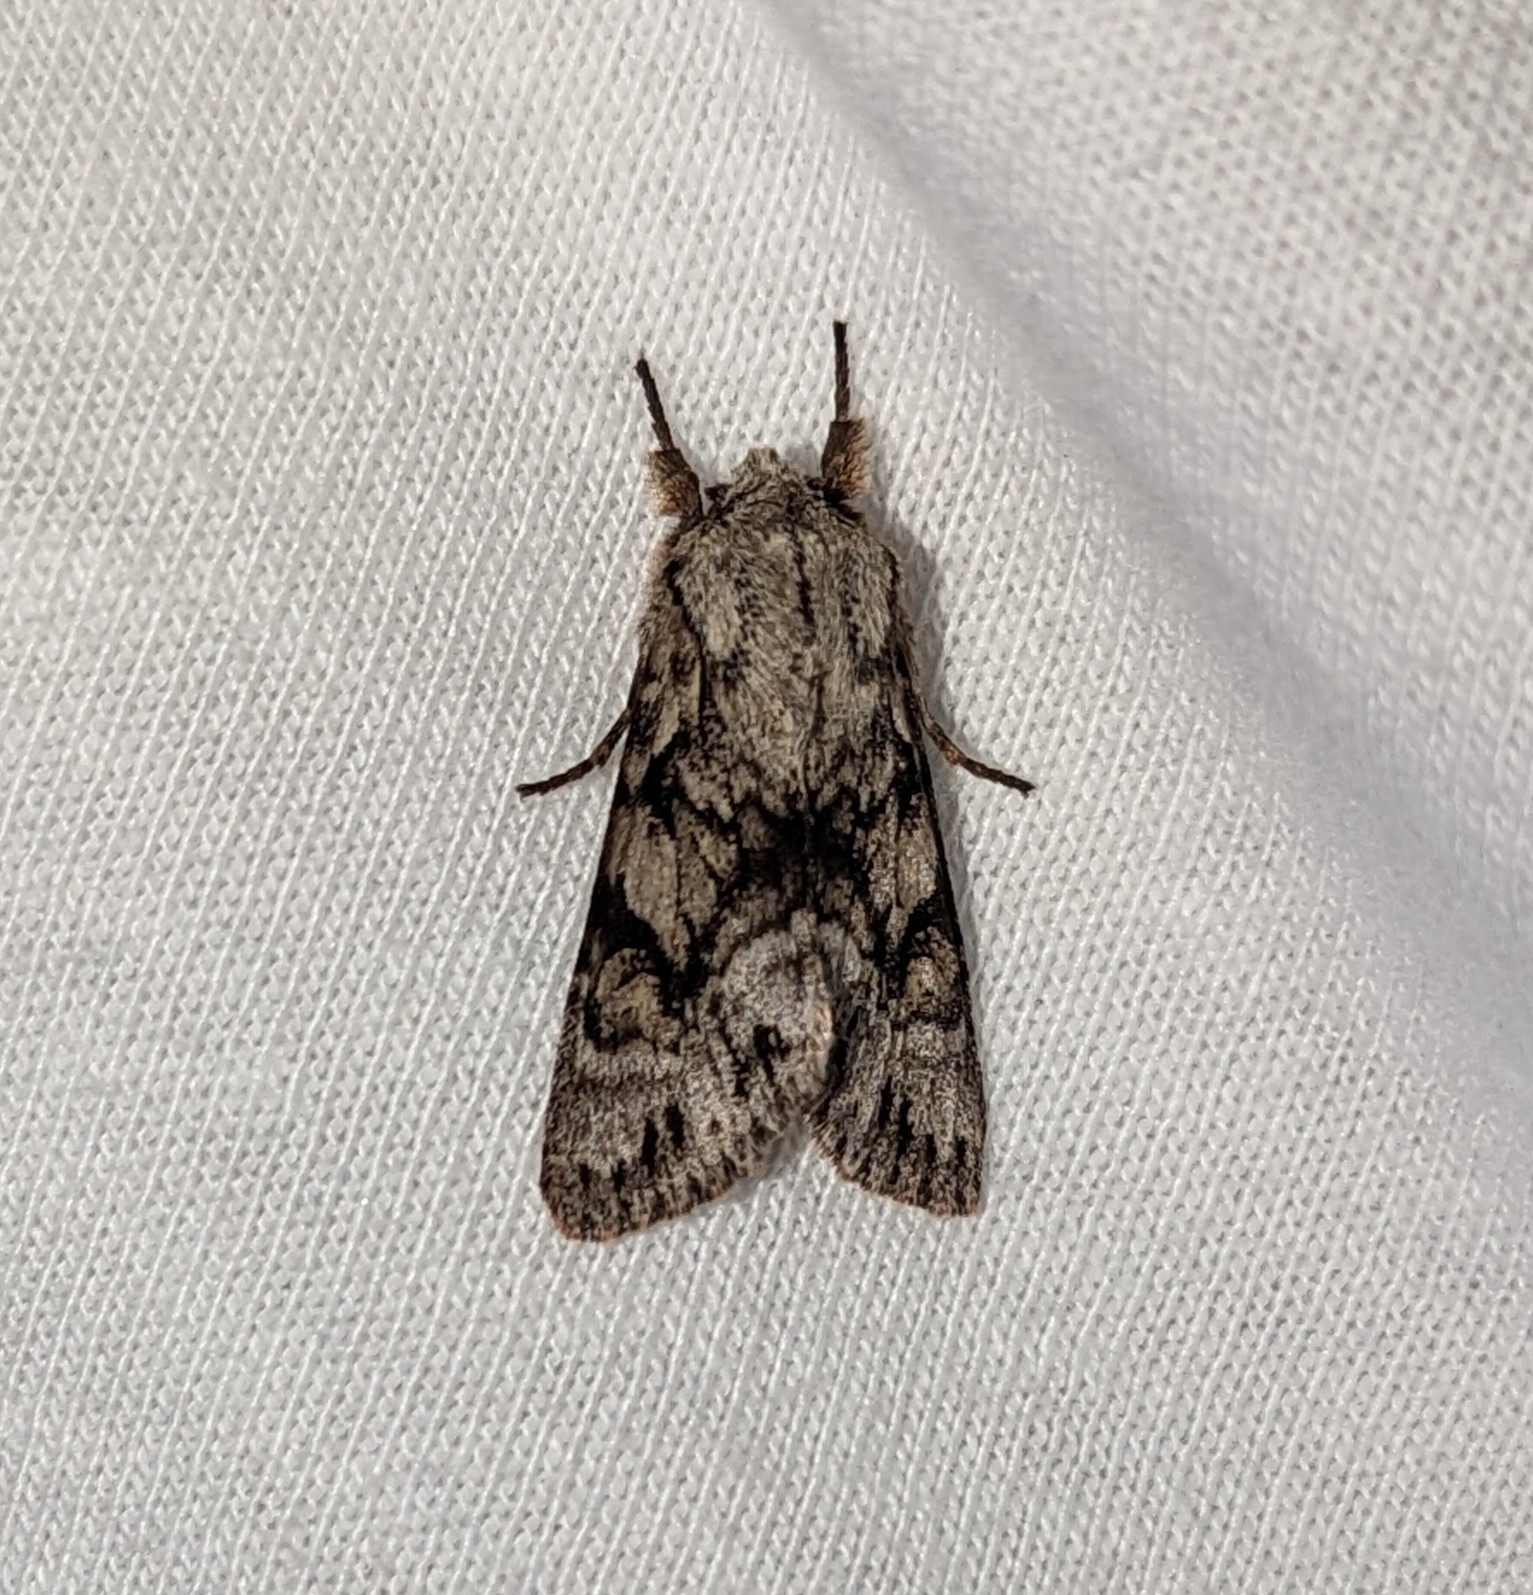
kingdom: Animalia
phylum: Arthropoda
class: Insecta
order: Lepidoptera
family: Noctuidae
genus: Egira
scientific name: Egira simplex
